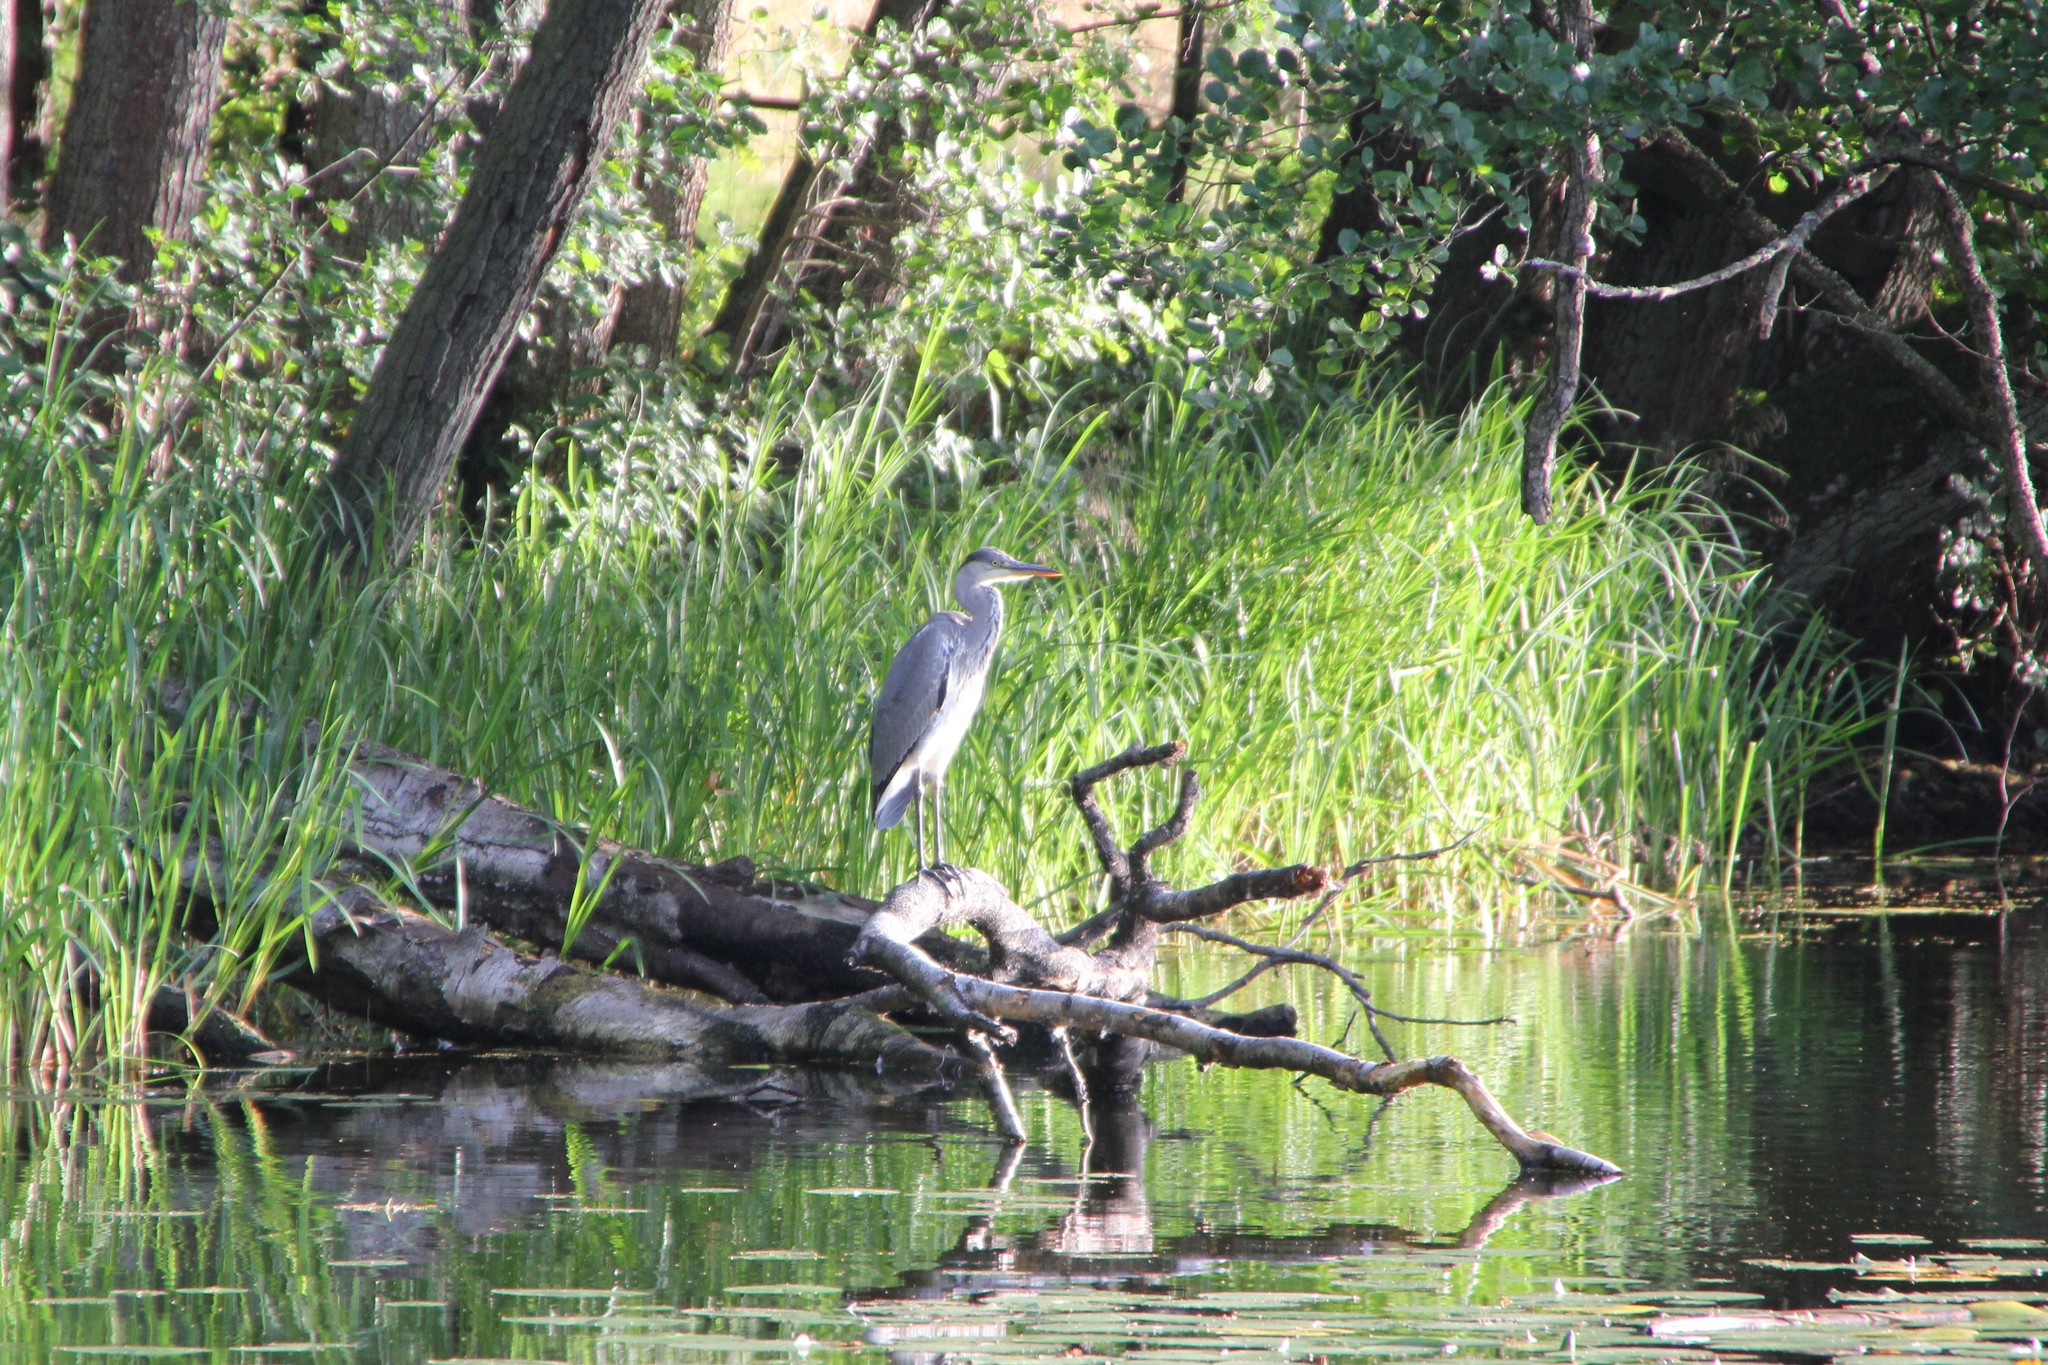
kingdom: Animalia
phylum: Chordata
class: Aves
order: Pelecaniformes
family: Ardeidae
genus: Ardea
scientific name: Ardea cinerea
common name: Grey heron
